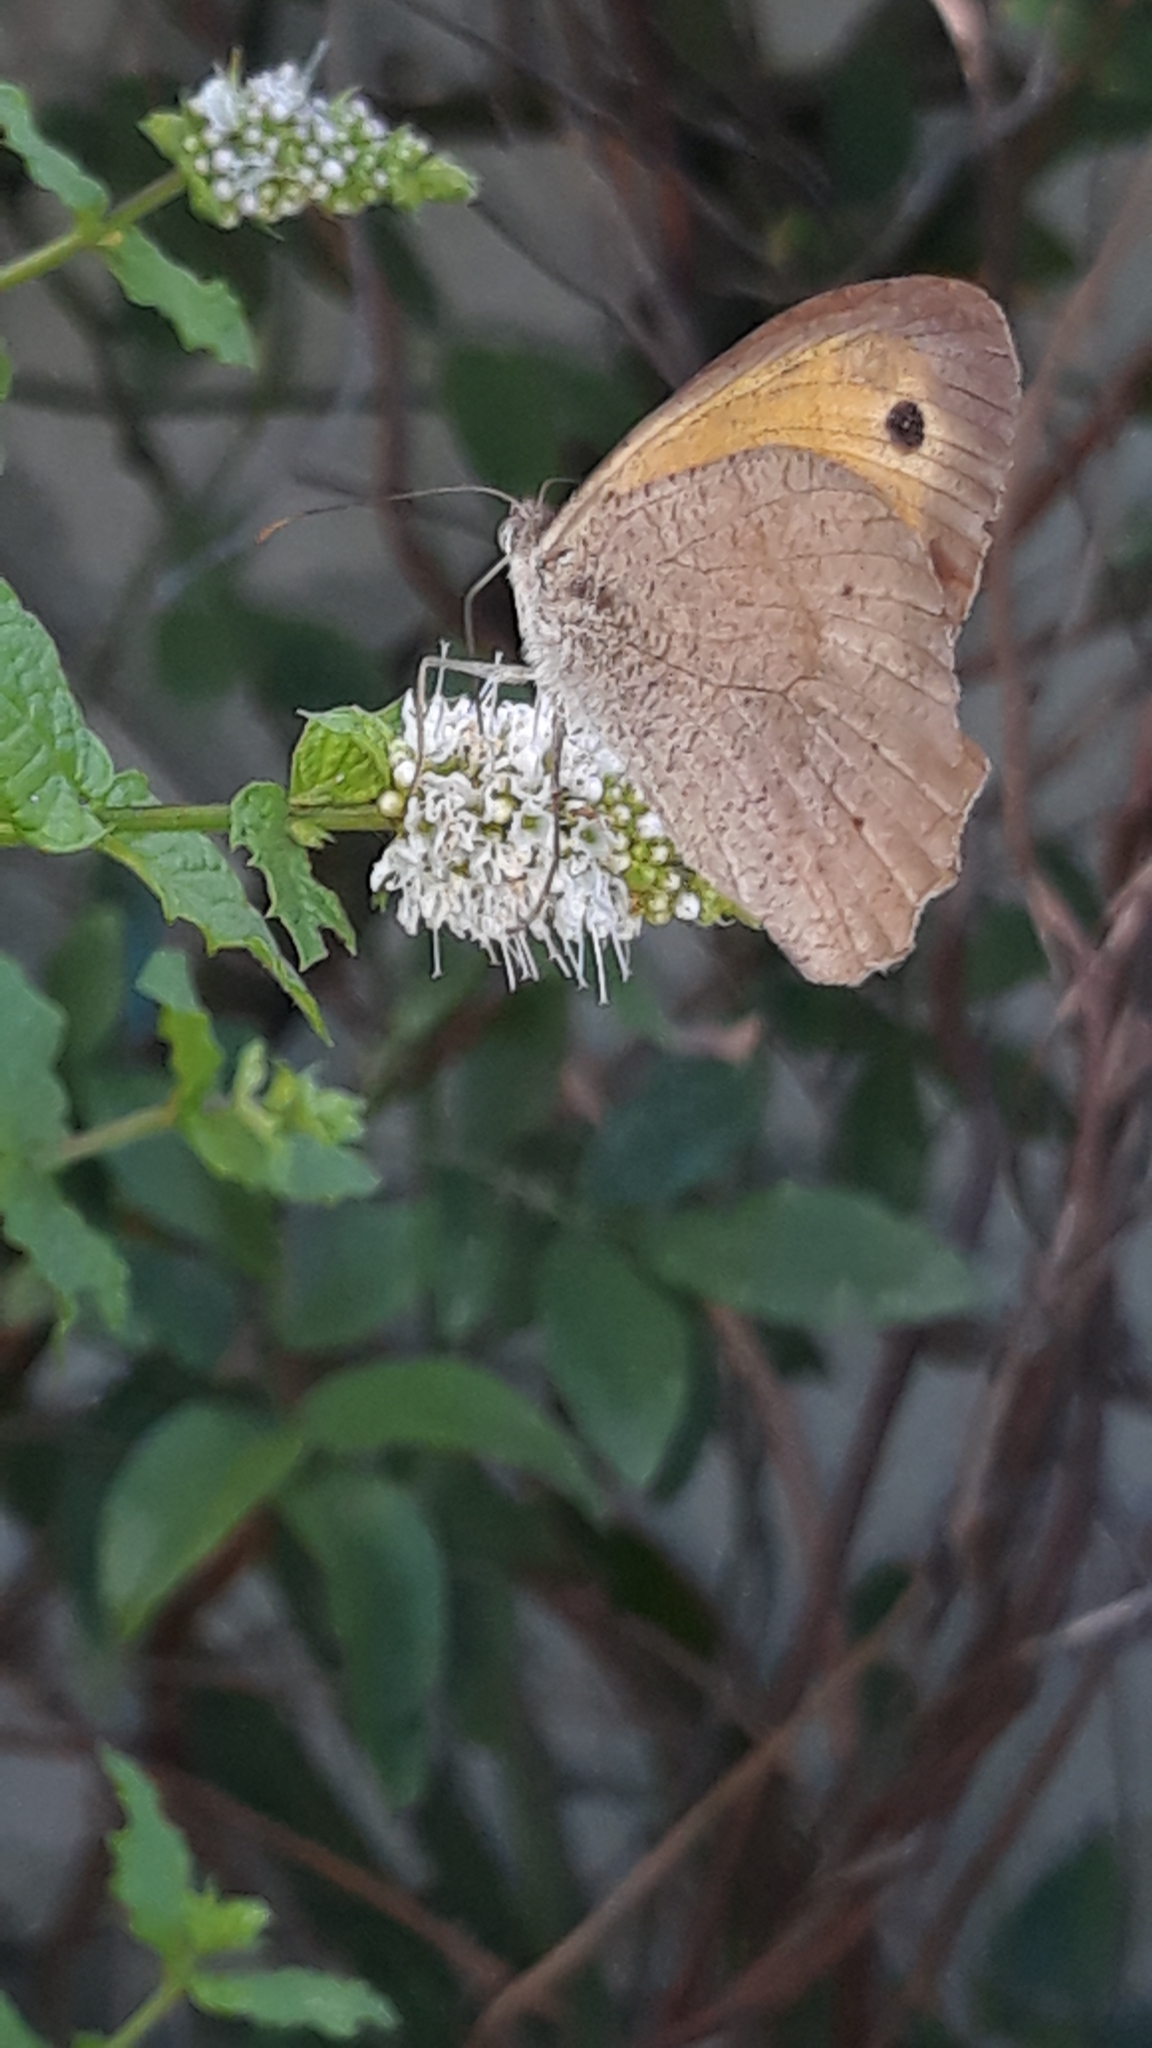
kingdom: Animalia
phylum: Arthropoda
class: Insecta
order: Lepidoptera
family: Nymphalidae
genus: Maniola
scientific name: Maniola jurtina
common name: Meadow brown
